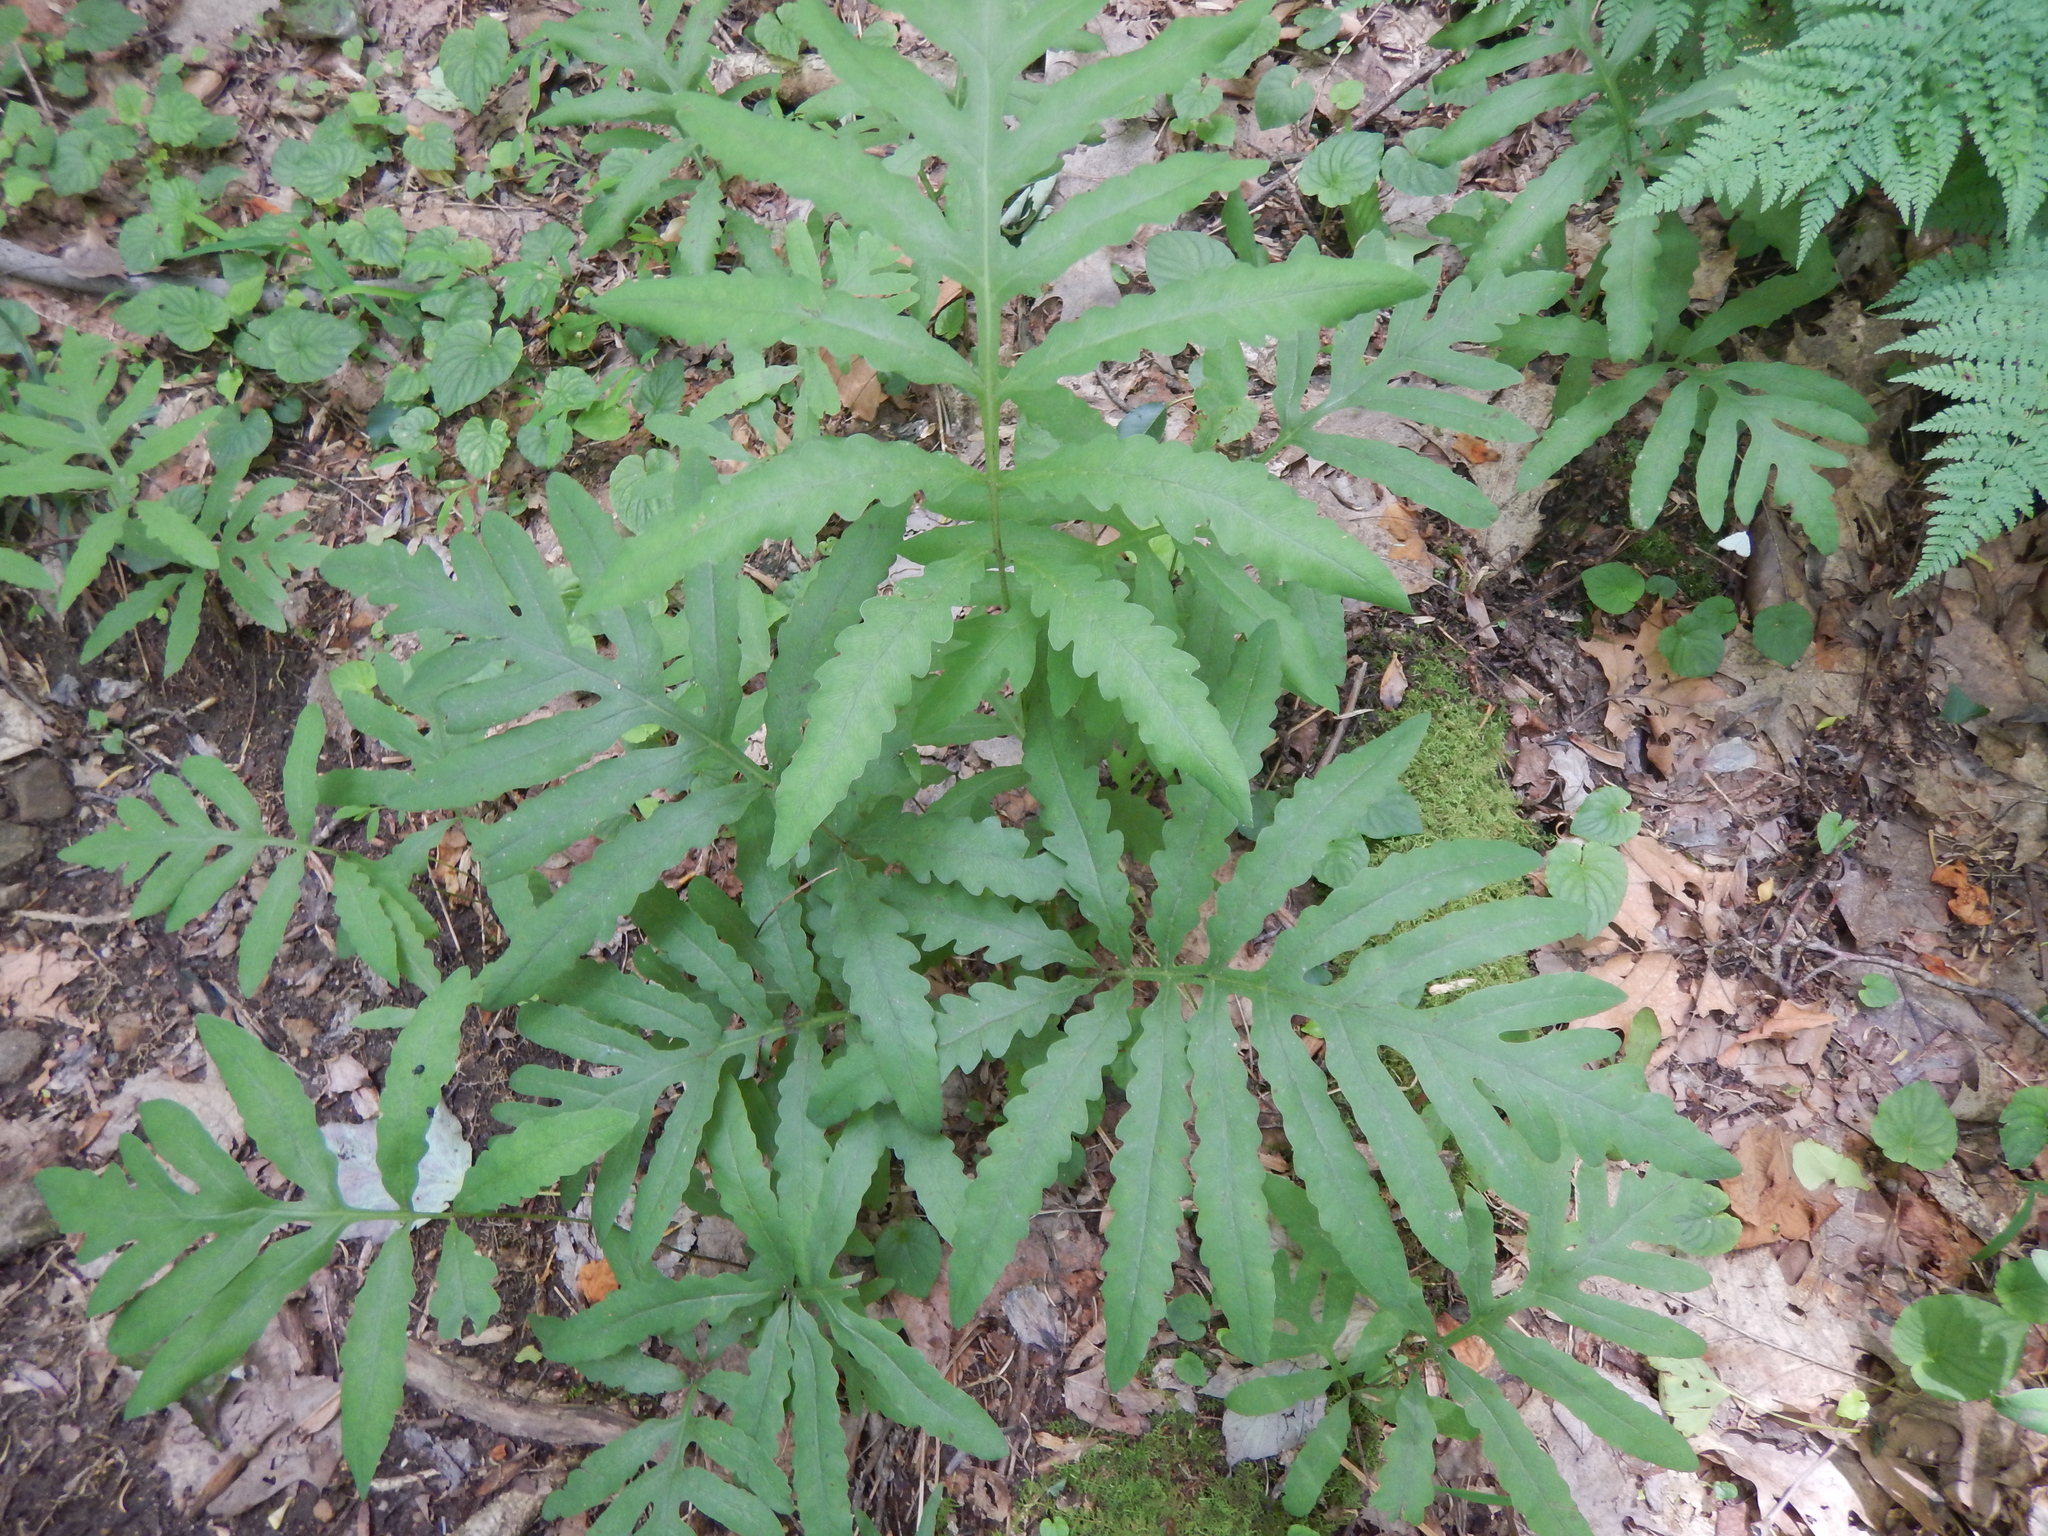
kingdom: Plantae
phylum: Tracheophyta
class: Polypodiopsida
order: Polypodiales
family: Onocleaceae
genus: Onoclea
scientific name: Onoclea sensibilis
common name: Sensitive fern
